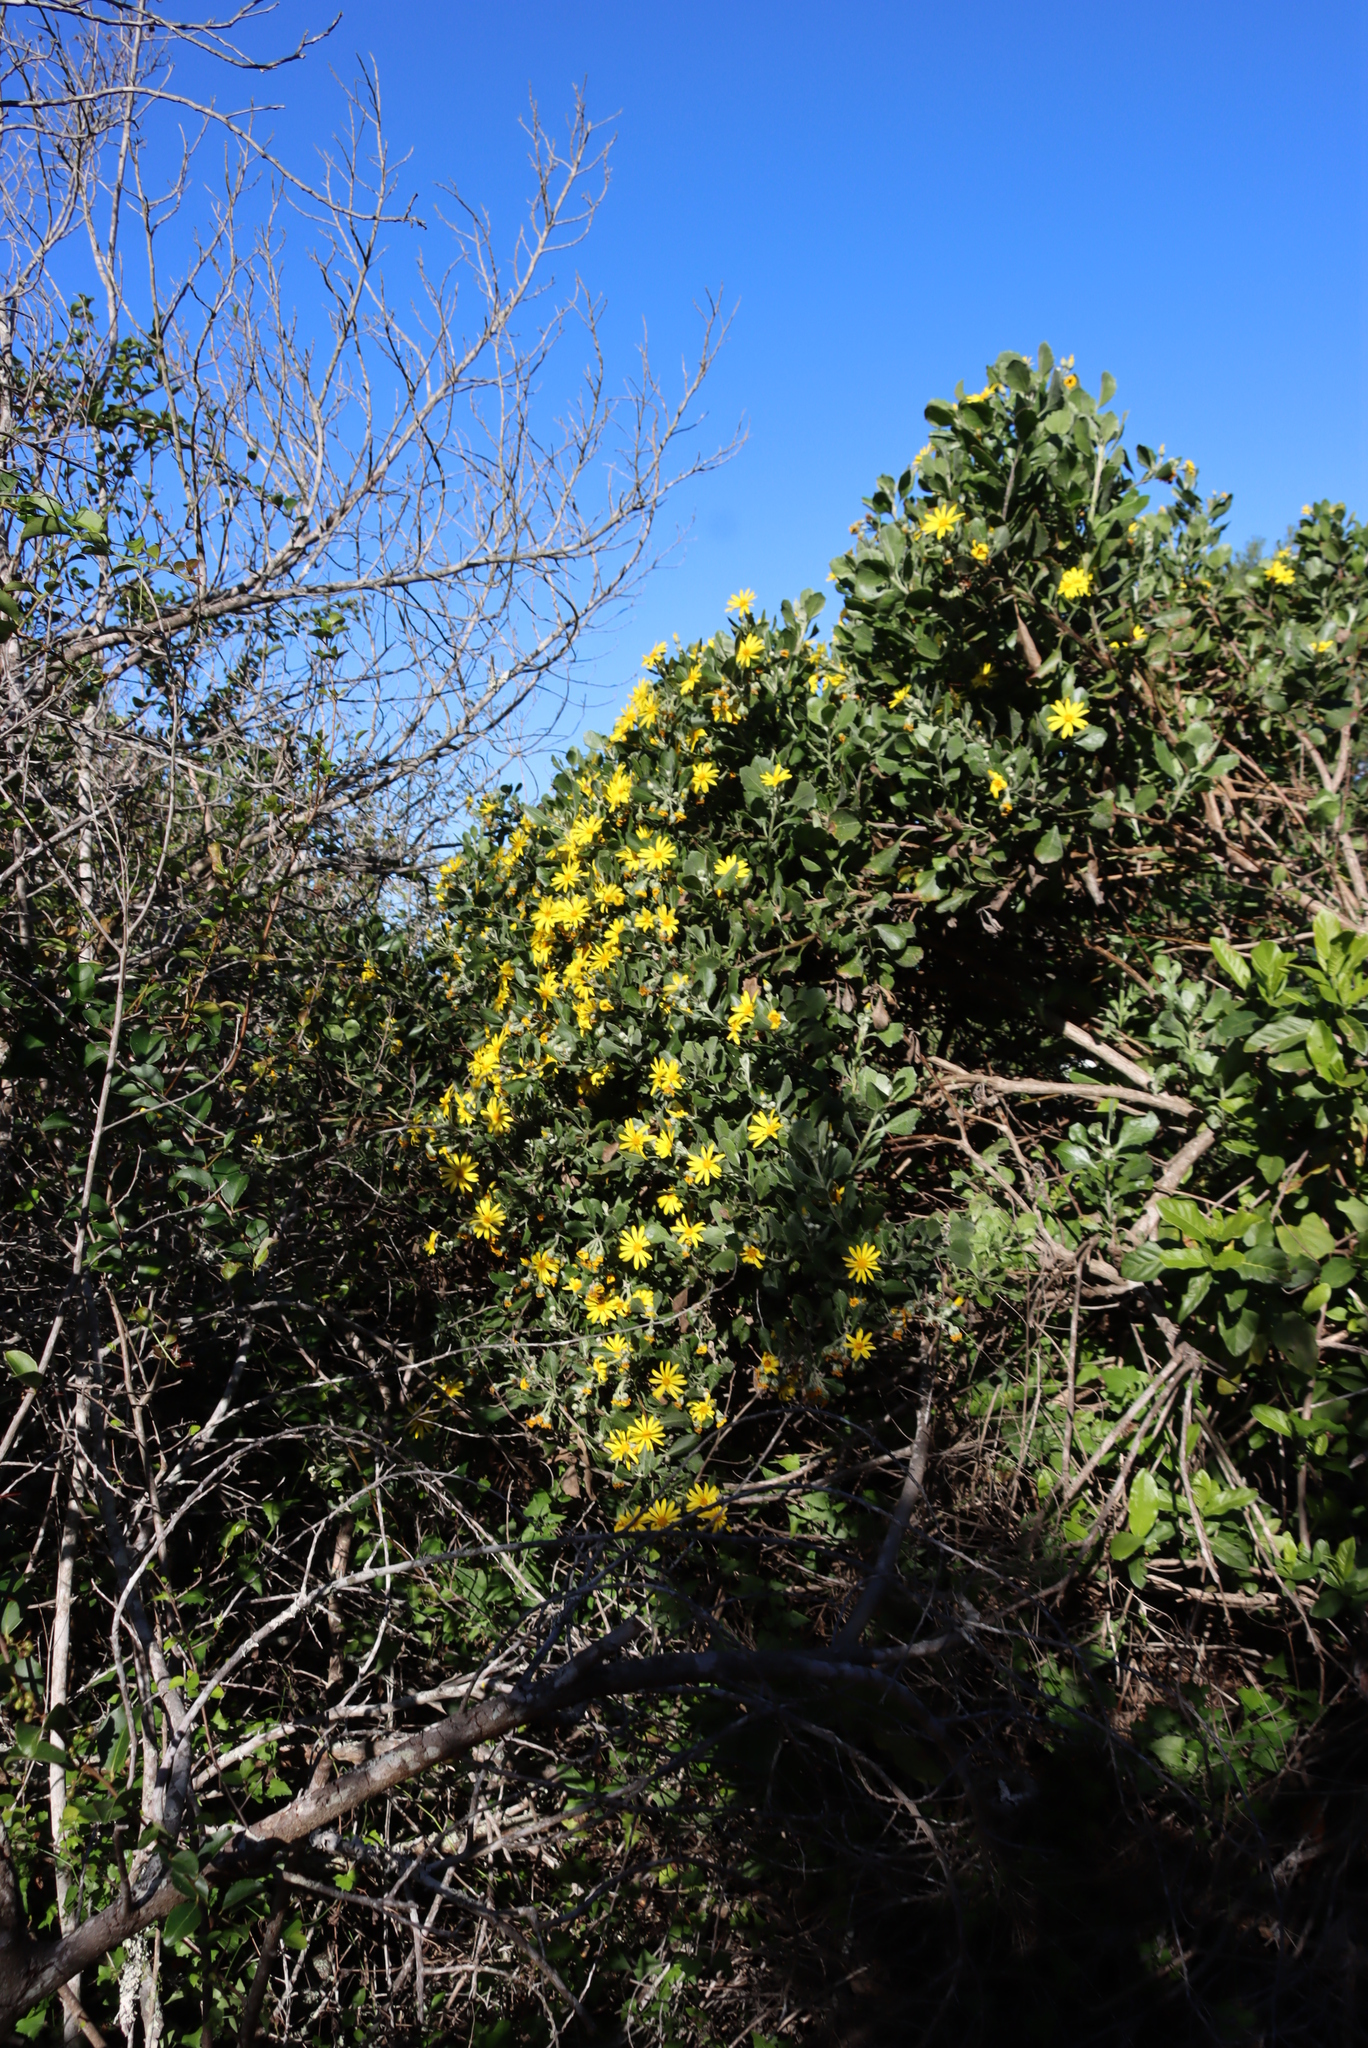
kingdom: Plantae
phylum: Tracheophyta
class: Magnoliopsida
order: Asterales
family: Asteraceae
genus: Osteospermum
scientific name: Osteospermum moniliferum
